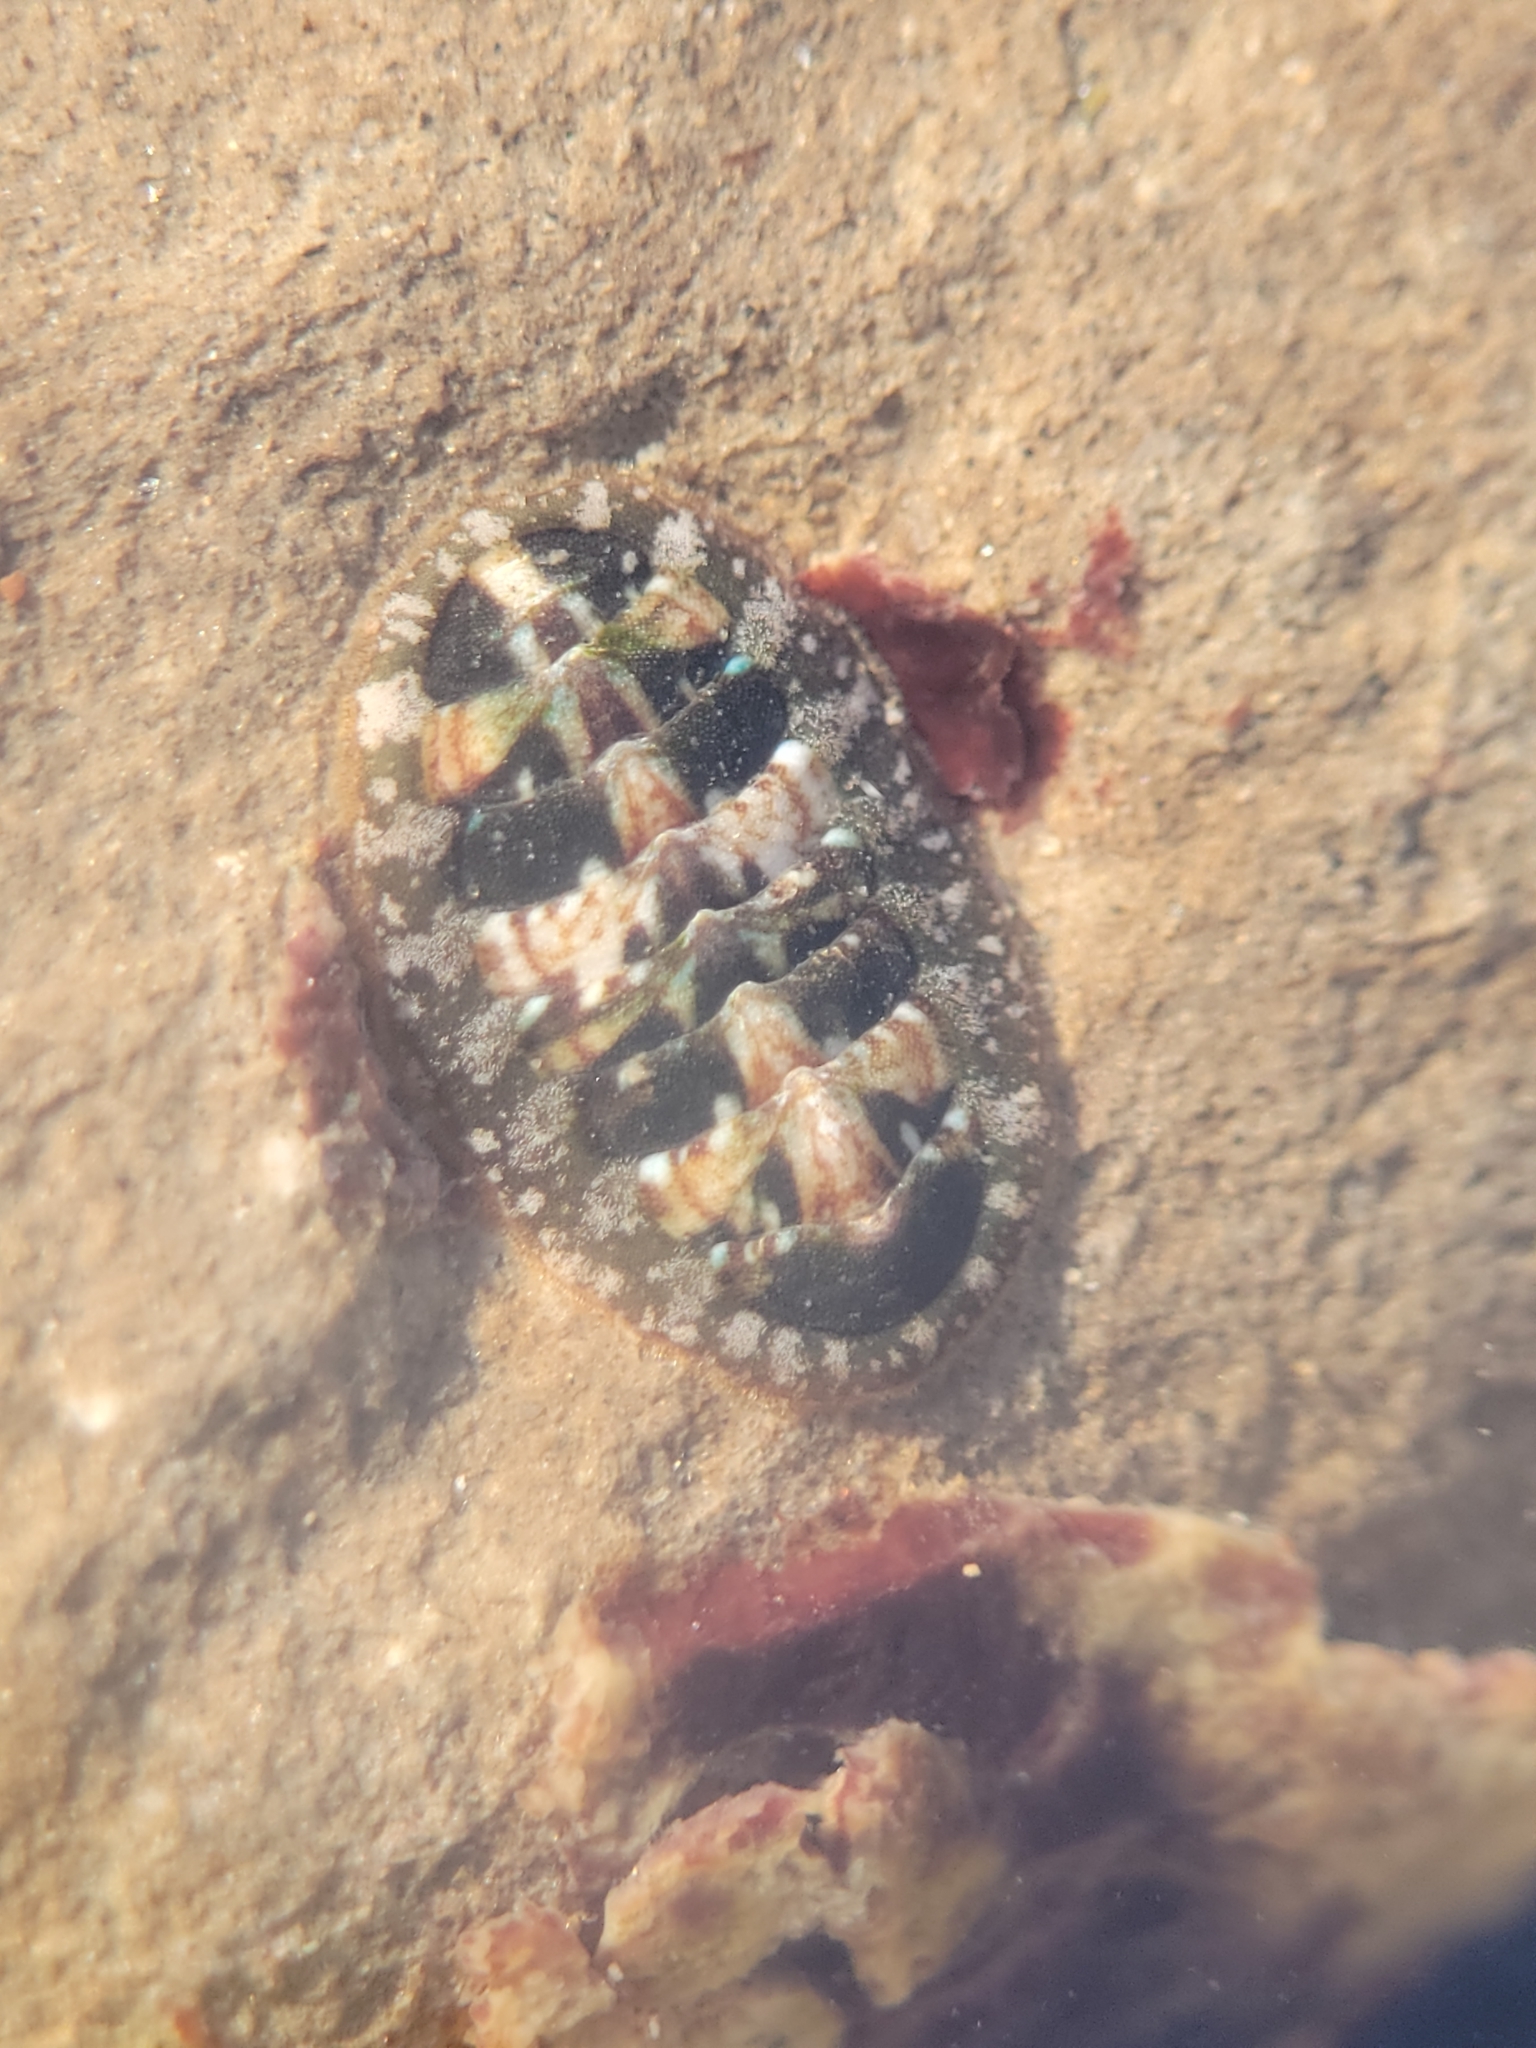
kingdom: Animalia
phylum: Mollusca
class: Polyplacophora
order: Chitonida
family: Tonicellidae
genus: Cyanoplax
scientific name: Cyanoplax dentiens
